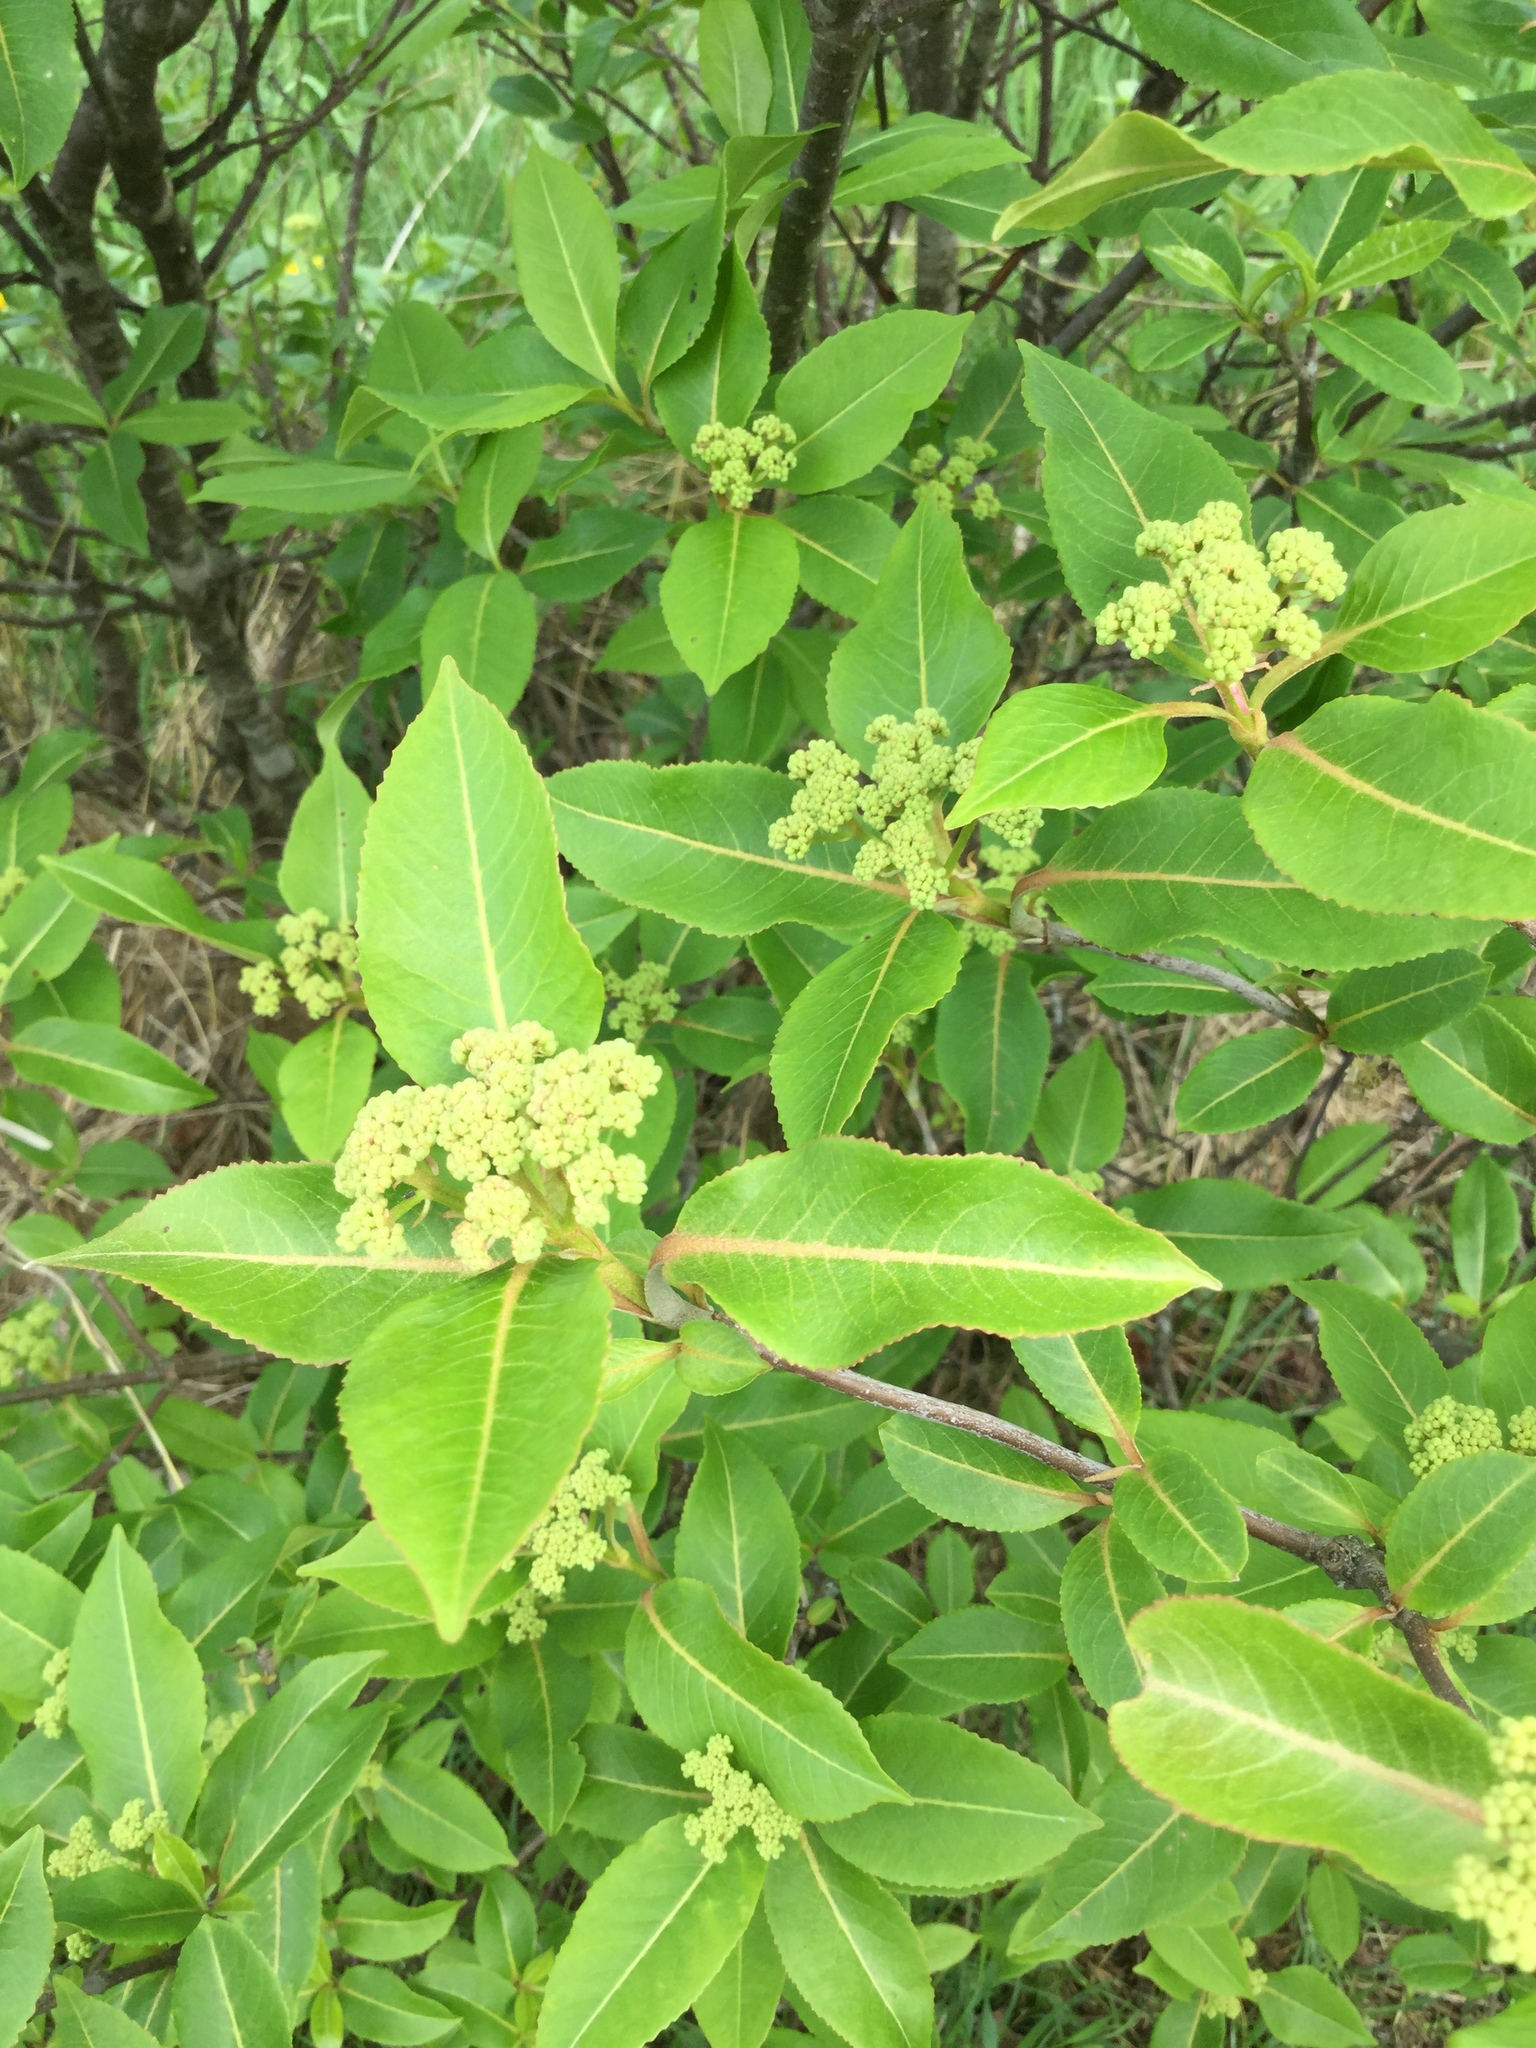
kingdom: Plantae
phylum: Tracheophyta
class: Magnoliopsida
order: Dipsacales
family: Viburnaceae
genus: Viburnum
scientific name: Viburnum cassinoides
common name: Swamp haw
